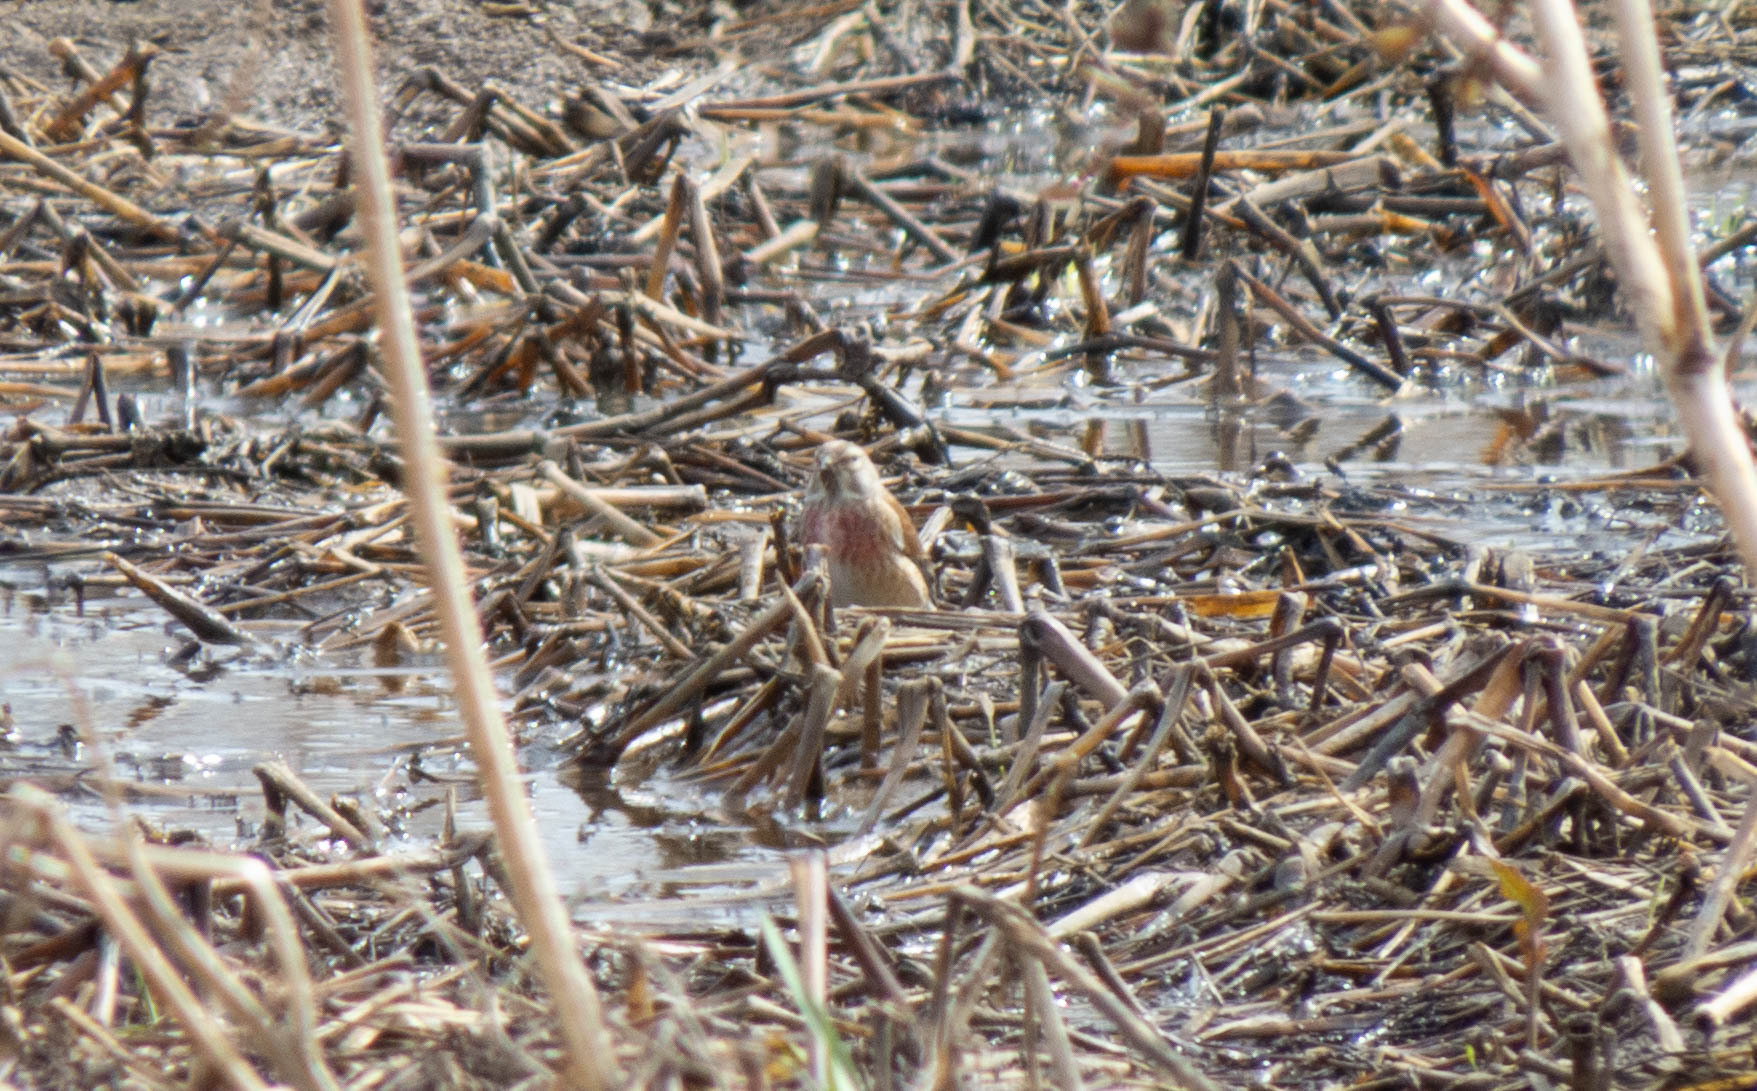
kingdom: Animalia
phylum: Chordata
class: Aves
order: Passeriformes
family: Fringillidae
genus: Linaria
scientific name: Linaria cannabina
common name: Common linnet
